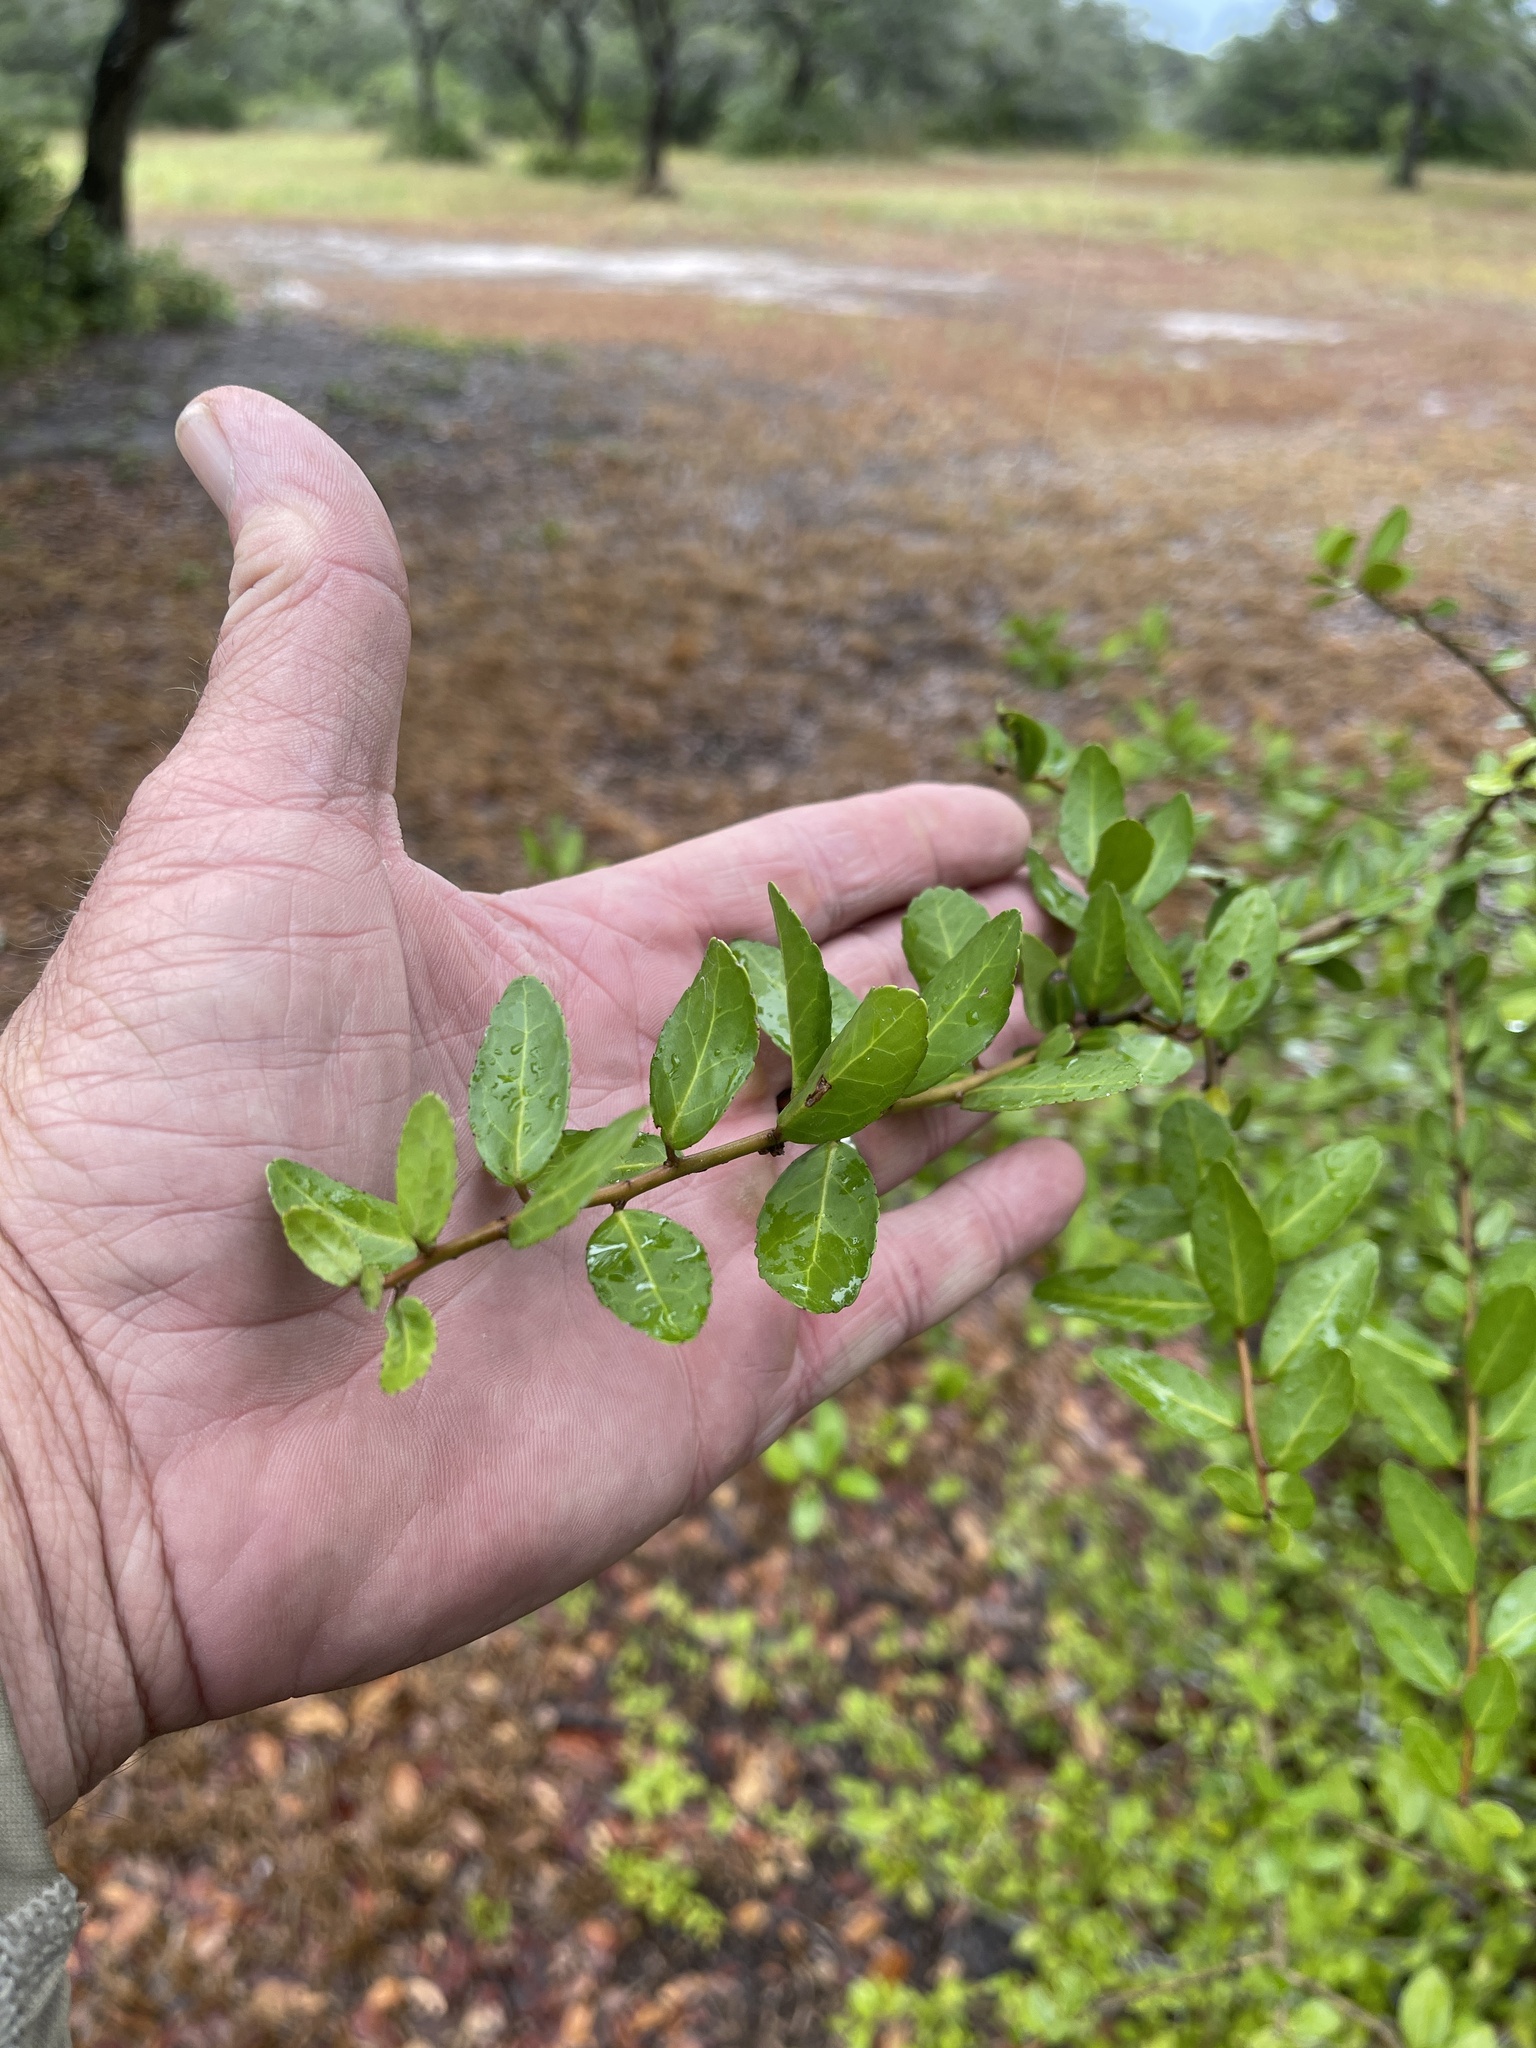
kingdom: Plantae
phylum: Tracheophyta
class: Magnoliopsida
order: Aquifoliales
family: Aquifoliaceae
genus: Ilex
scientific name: Ilex vomitoria
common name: Yaupon holly
